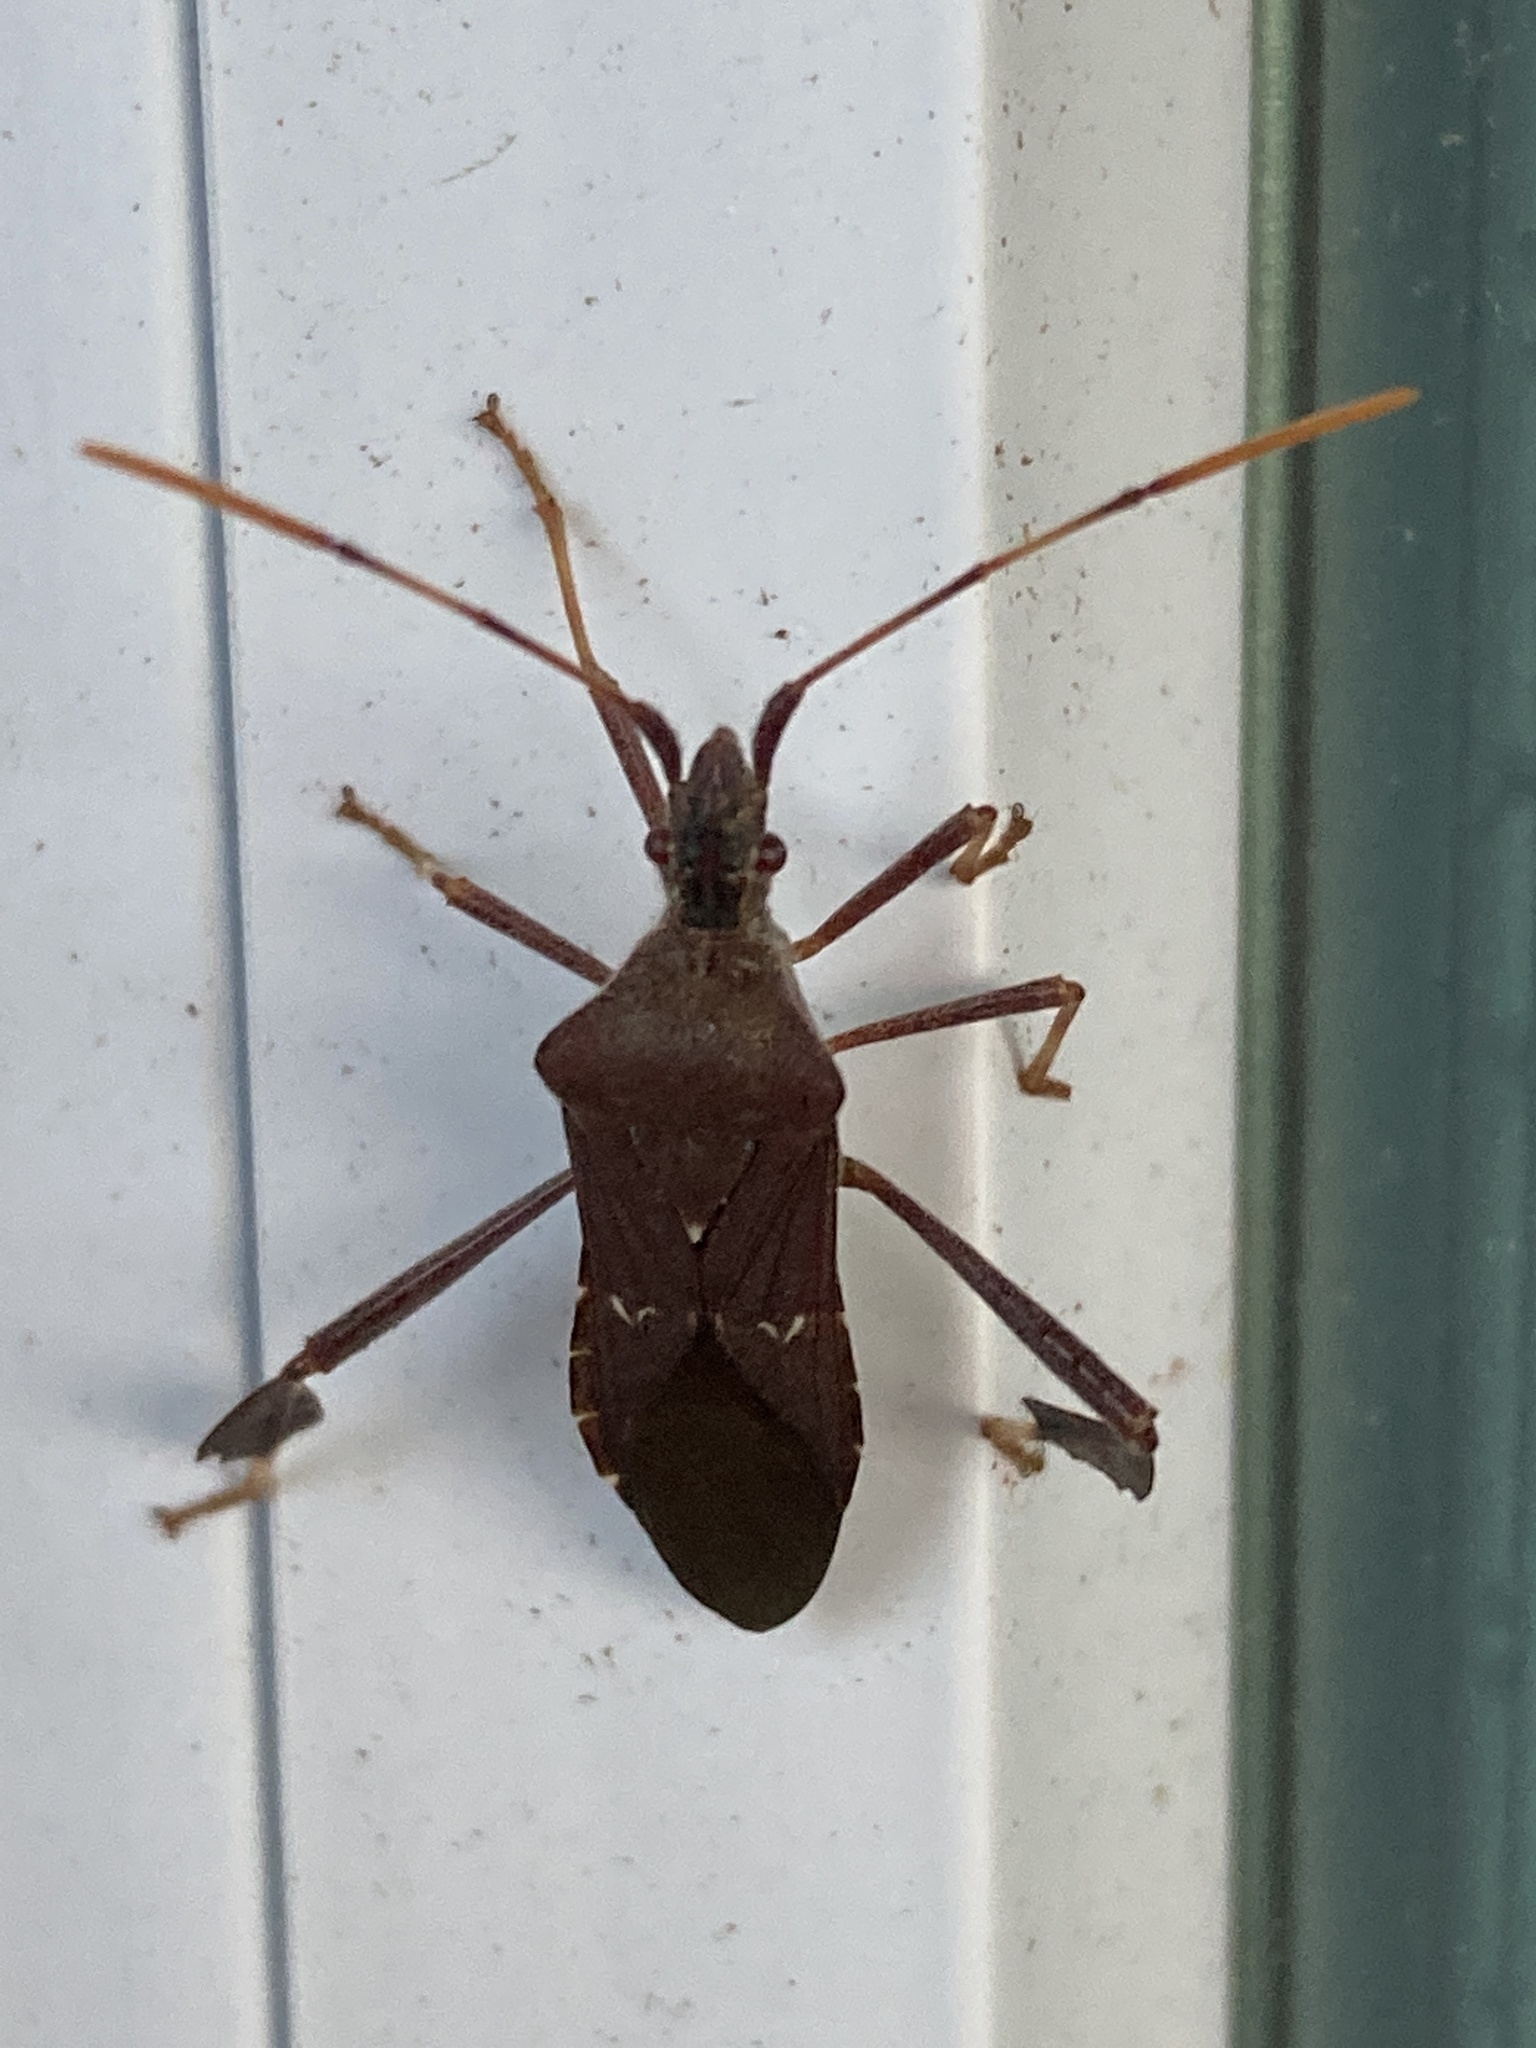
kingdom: Animalia
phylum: Arthropoda
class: Insecta
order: Hemiptera
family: Coreidae
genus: Leptoglossus
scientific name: Leptoglossus oppositus
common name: Northern leaf-footed bug
